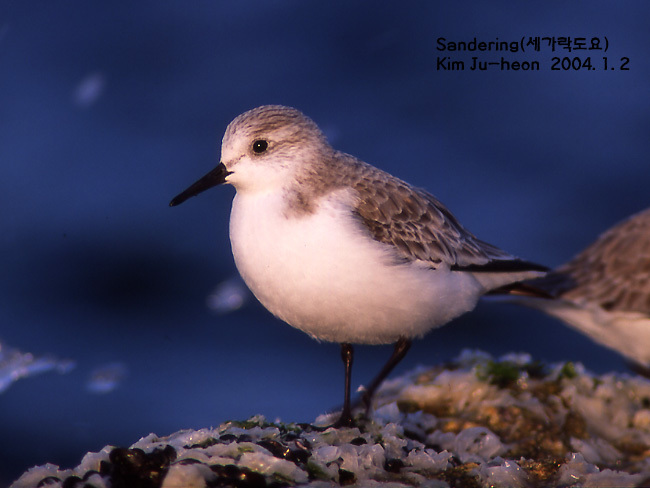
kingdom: Animalia
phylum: Chordata
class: Aves
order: Charadriiformes
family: Scolopacidae
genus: Calidris
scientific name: Calidris alba
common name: Sanderling
